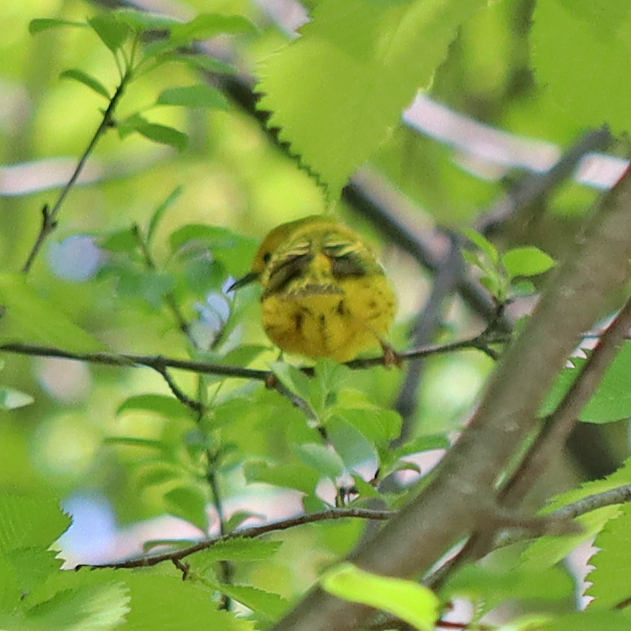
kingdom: Animalia
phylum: Chordata
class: Aves
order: Passeriformes
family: Parulidae
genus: Setophaga
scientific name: Setophaga petechia
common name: Yellow warbler
